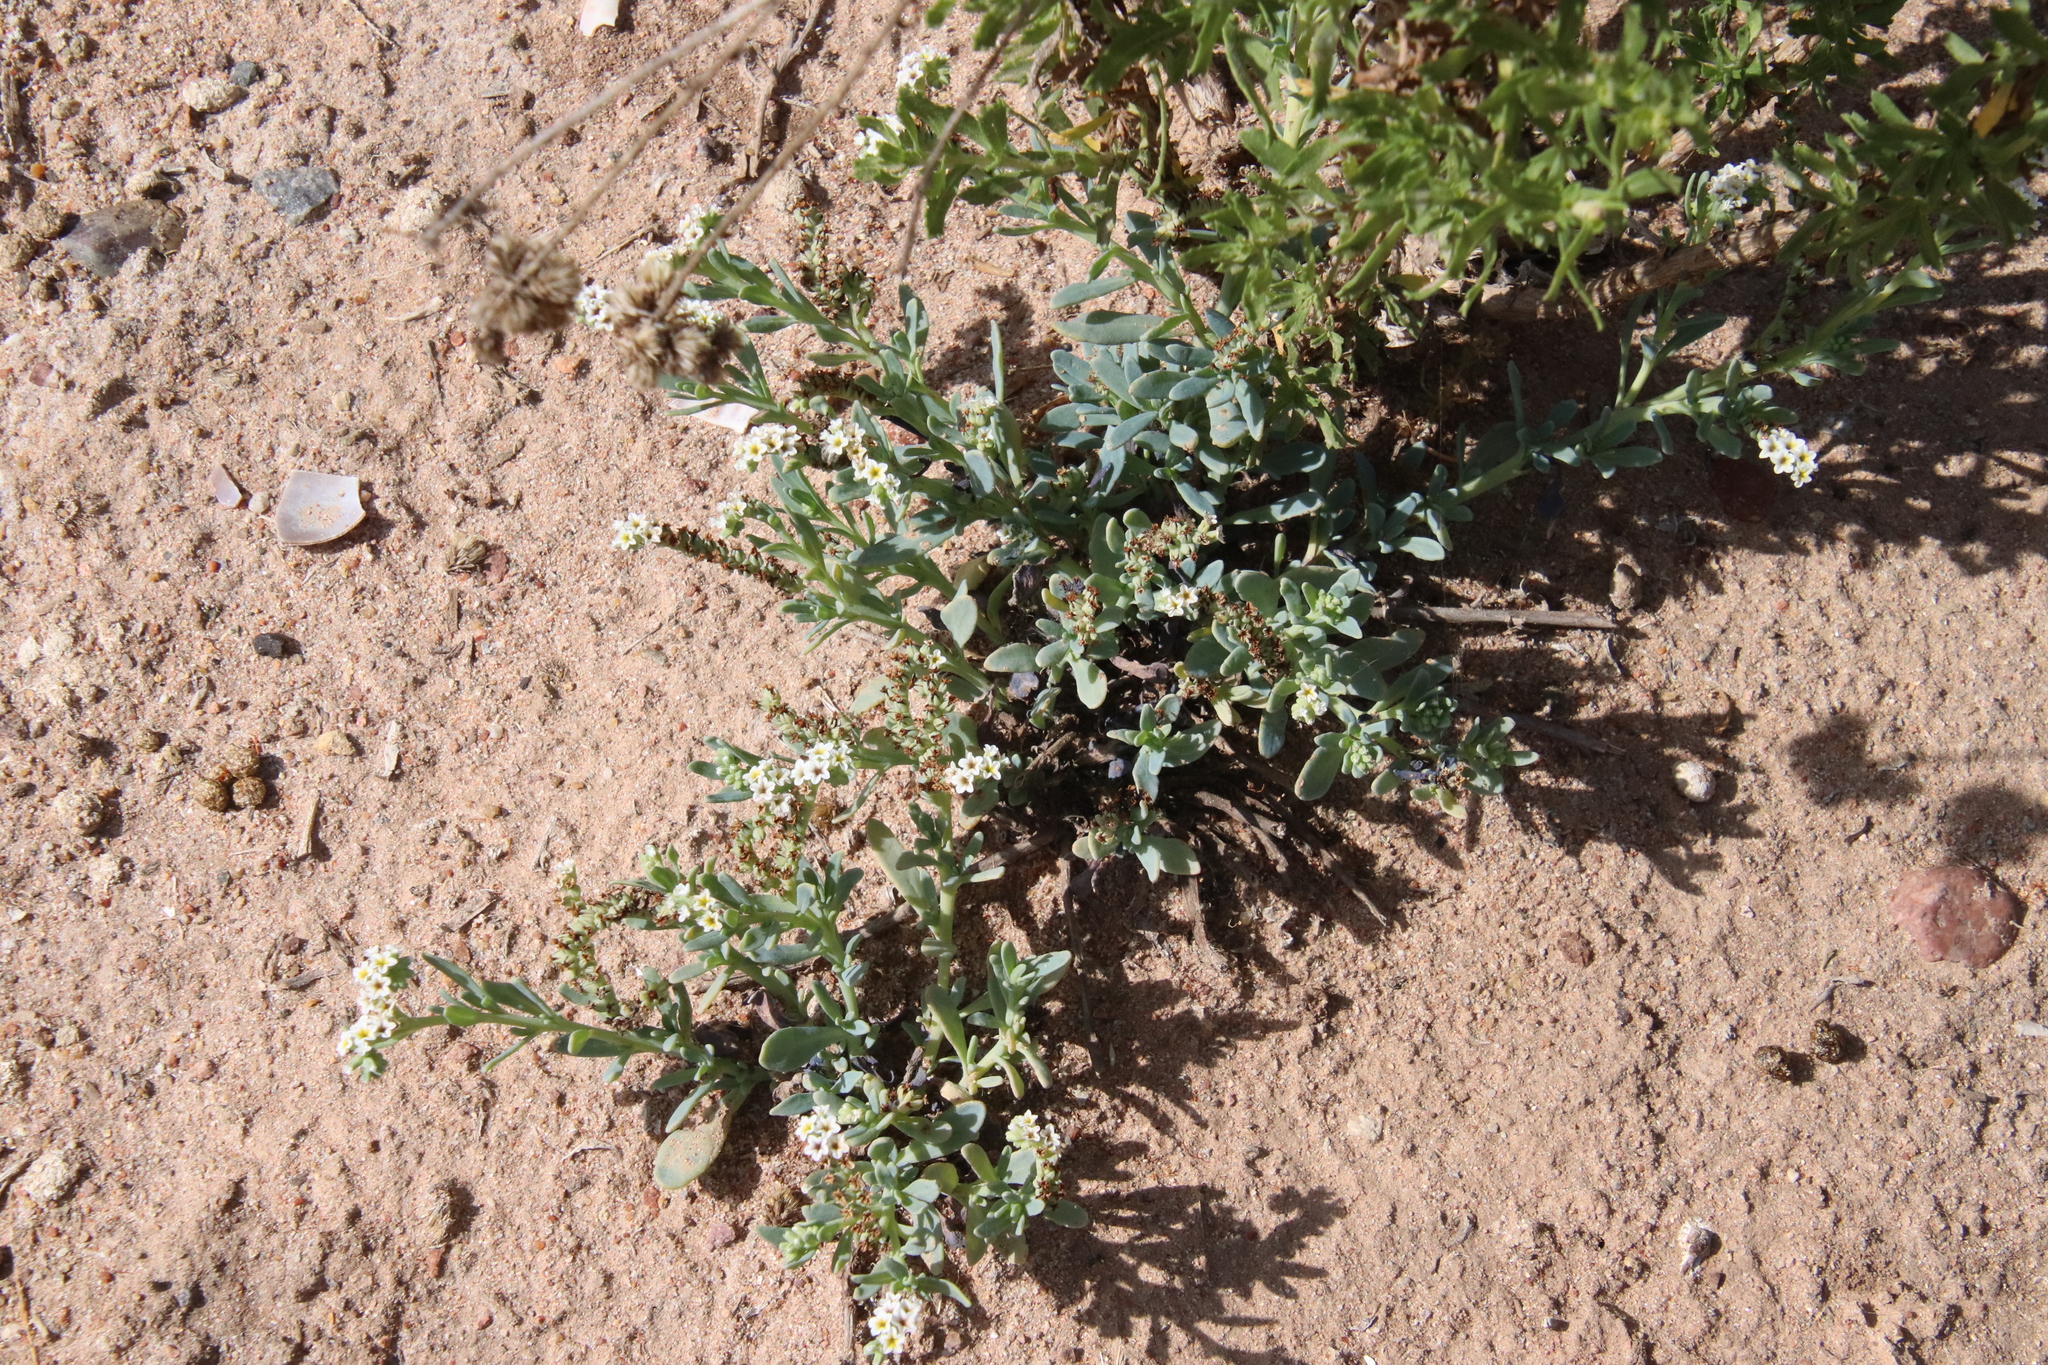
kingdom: Plantae
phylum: Tracheophyta
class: Magnoliopsida
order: Boraginales
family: Heliotropiaceae
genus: Heliotropium
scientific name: Heliotropium curassavicum
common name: Seaside heliotrope
